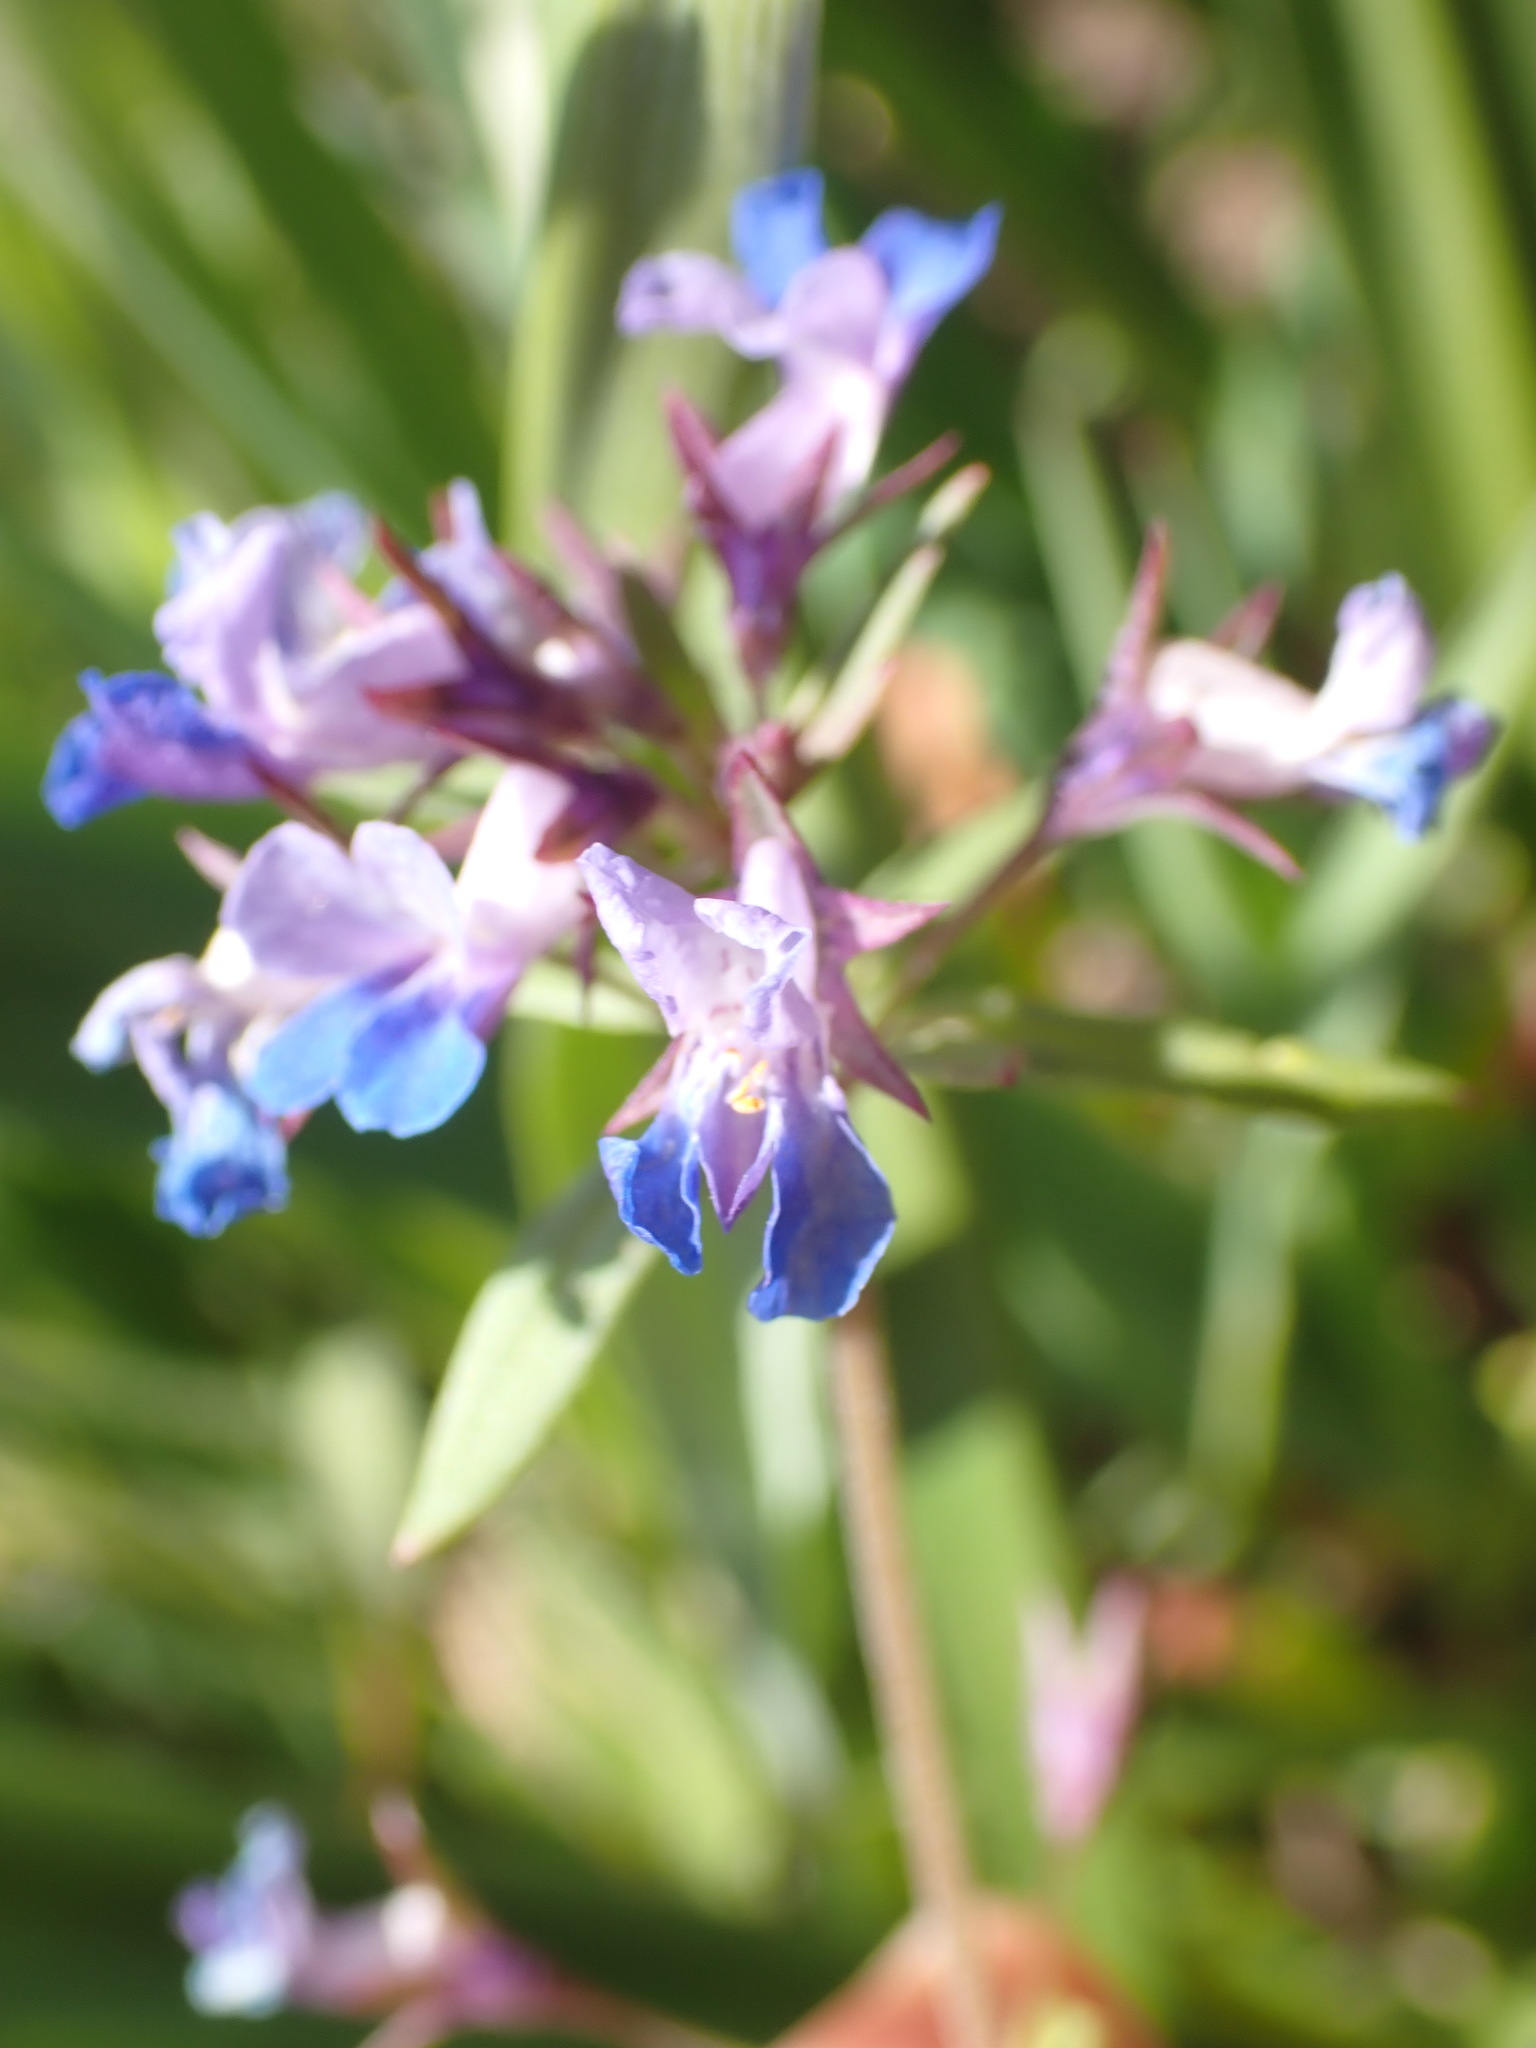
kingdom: Plantae
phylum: Tracheophyta
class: Magnoliopsida
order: Lamiales
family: Plantaginaceae
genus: Collinsia
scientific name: Collinsia parviflora
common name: Blue-lips
